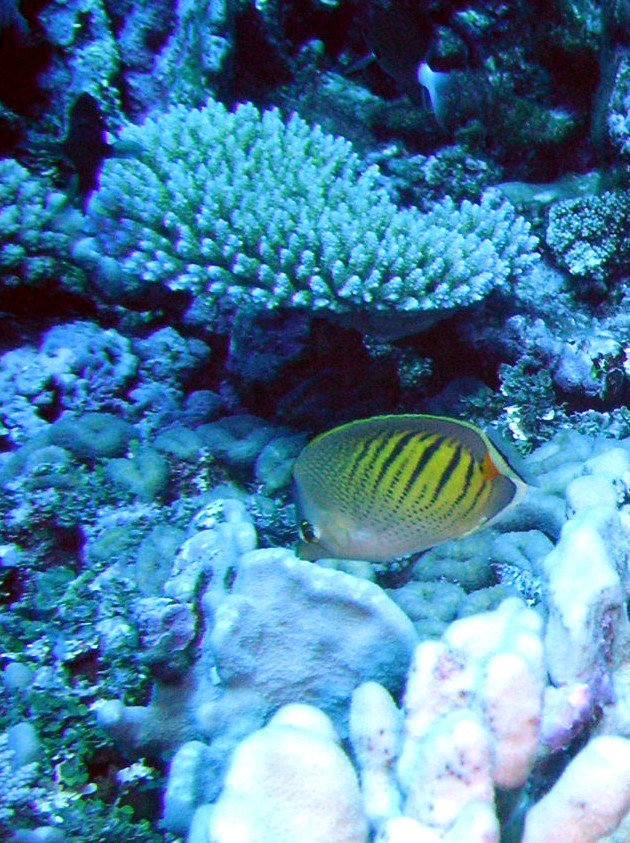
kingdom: Animalia
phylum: Chordata
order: Perciformes
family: Chaetodontidae
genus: Chaetodon
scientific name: Chaetodon pelewensis
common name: Dot-and-dash butterflyfish
